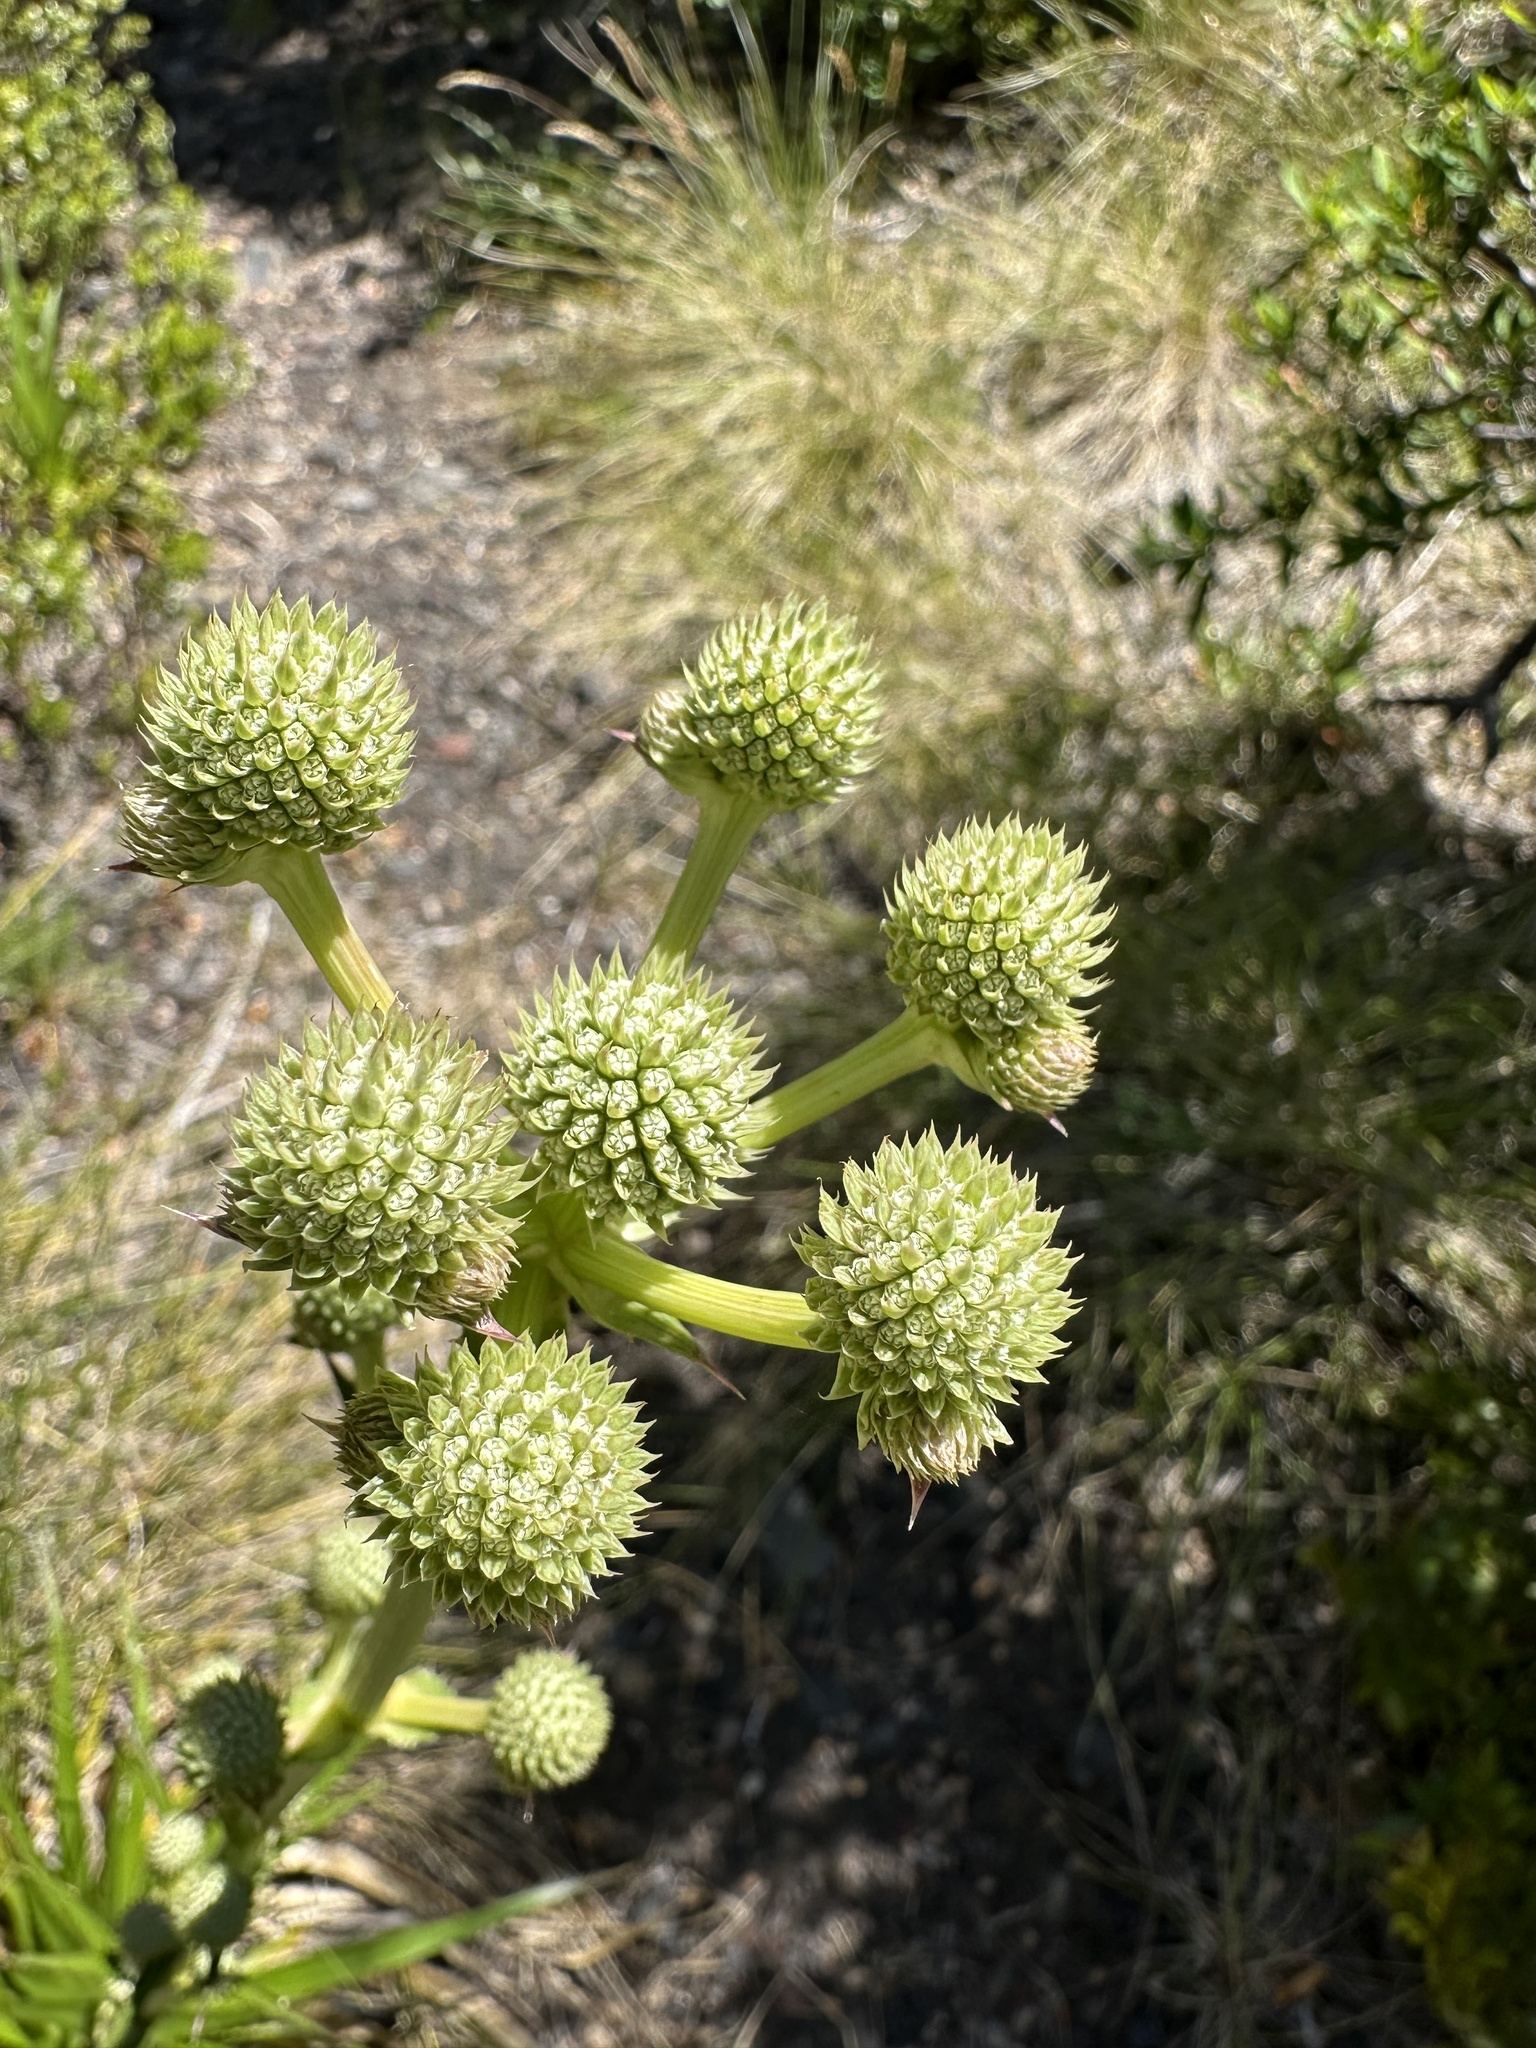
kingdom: Plantae
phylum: Tracheophyta
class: Magnoliopsida
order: Apiales
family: Apiaceae
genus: Eryngium
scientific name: Eryngium humboldtii
